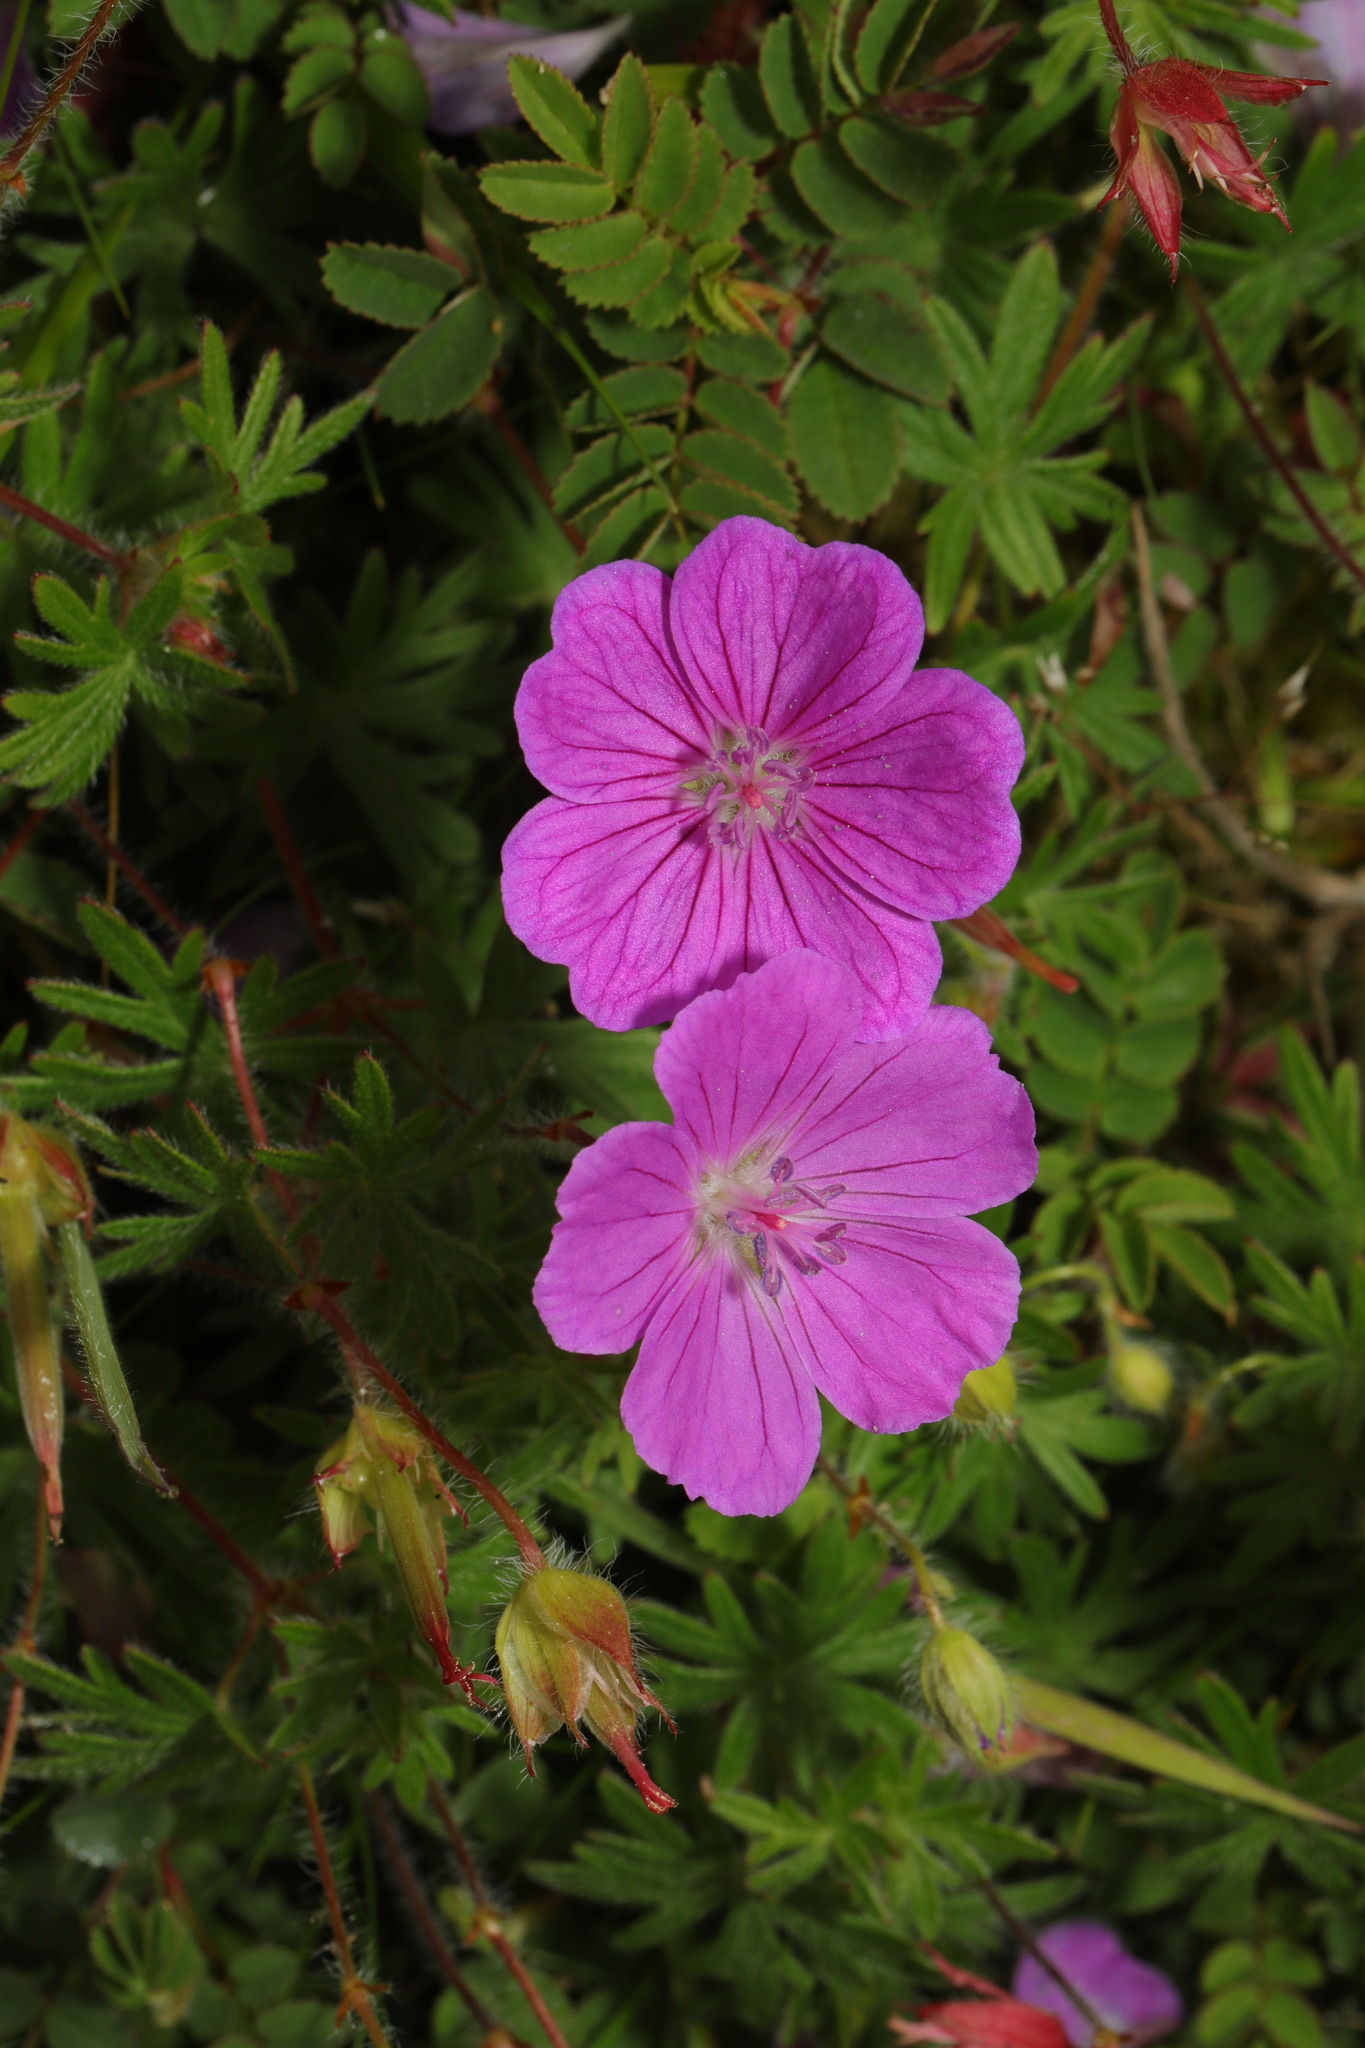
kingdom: Plantae
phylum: Tracheophyta
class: Magnoliopsida
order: Geraniales
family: Geraniaceae
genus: Geranium
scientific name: Geranium sanguineum
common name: Bloody crane's-bill
